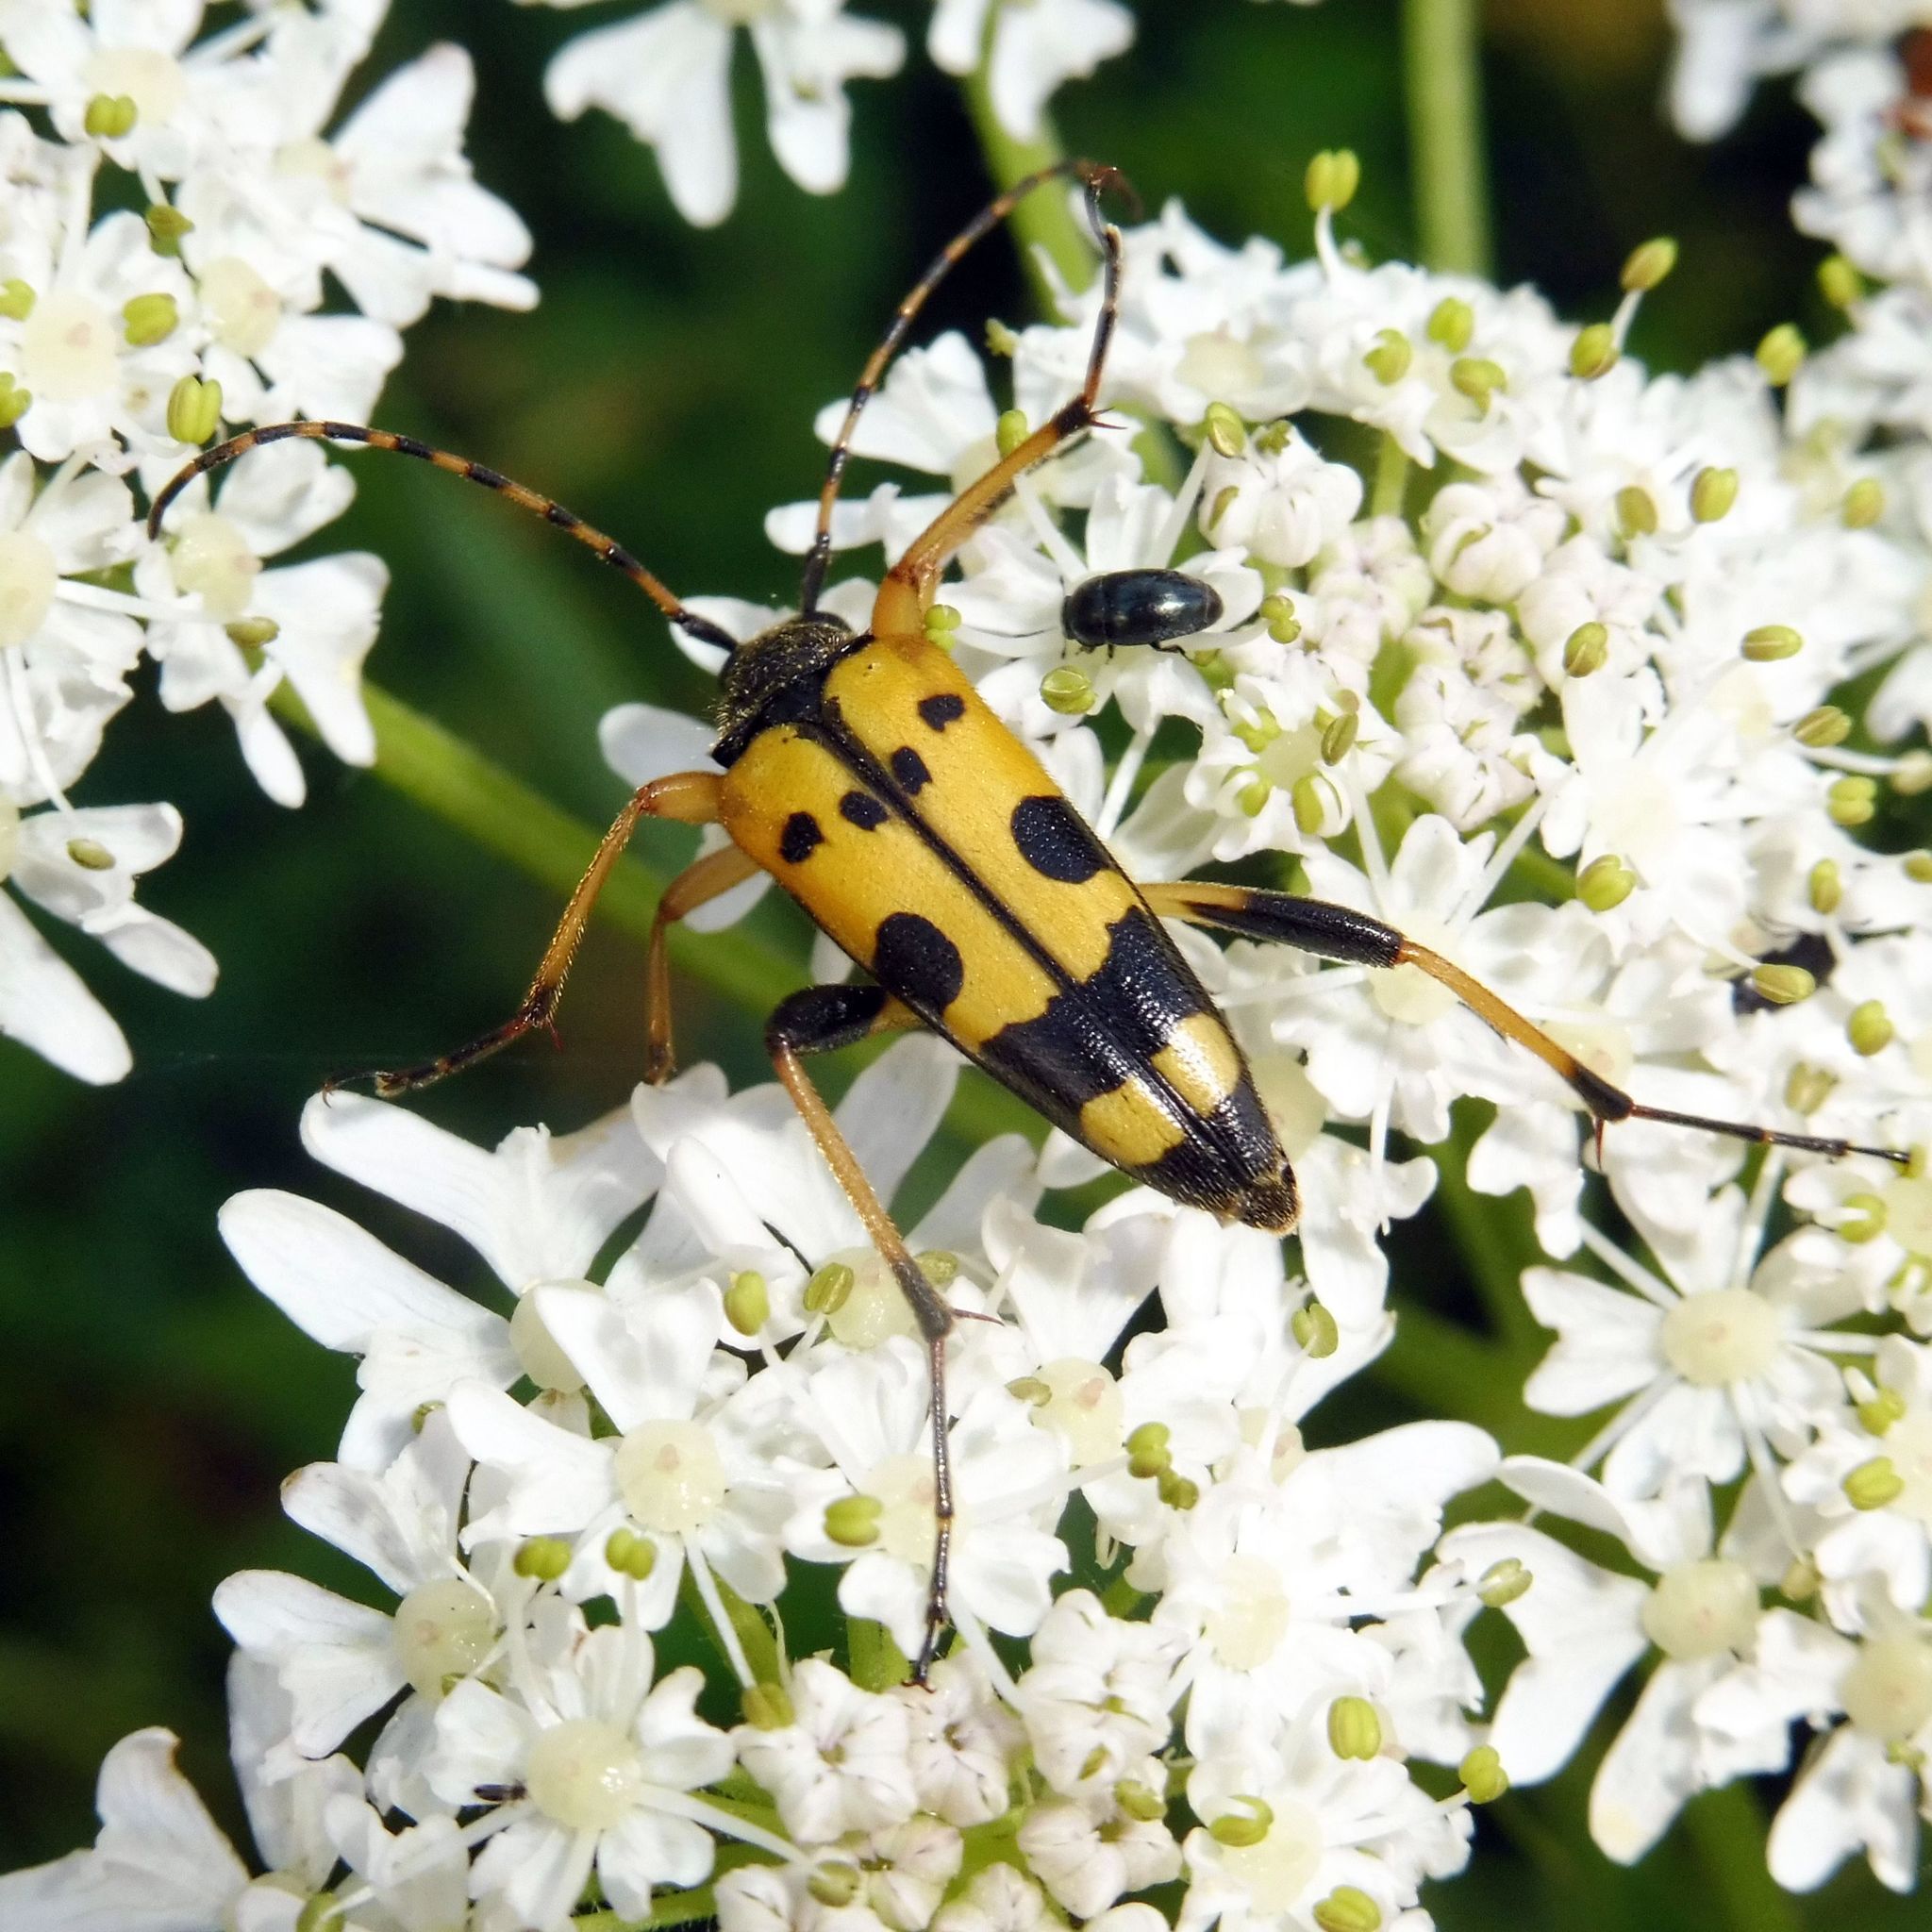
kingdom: Animalia
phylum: Arthropoda
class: Insecta
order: Coleoptera
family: Cerambycidae
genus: Rutpela
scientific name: Rutpela maculata
